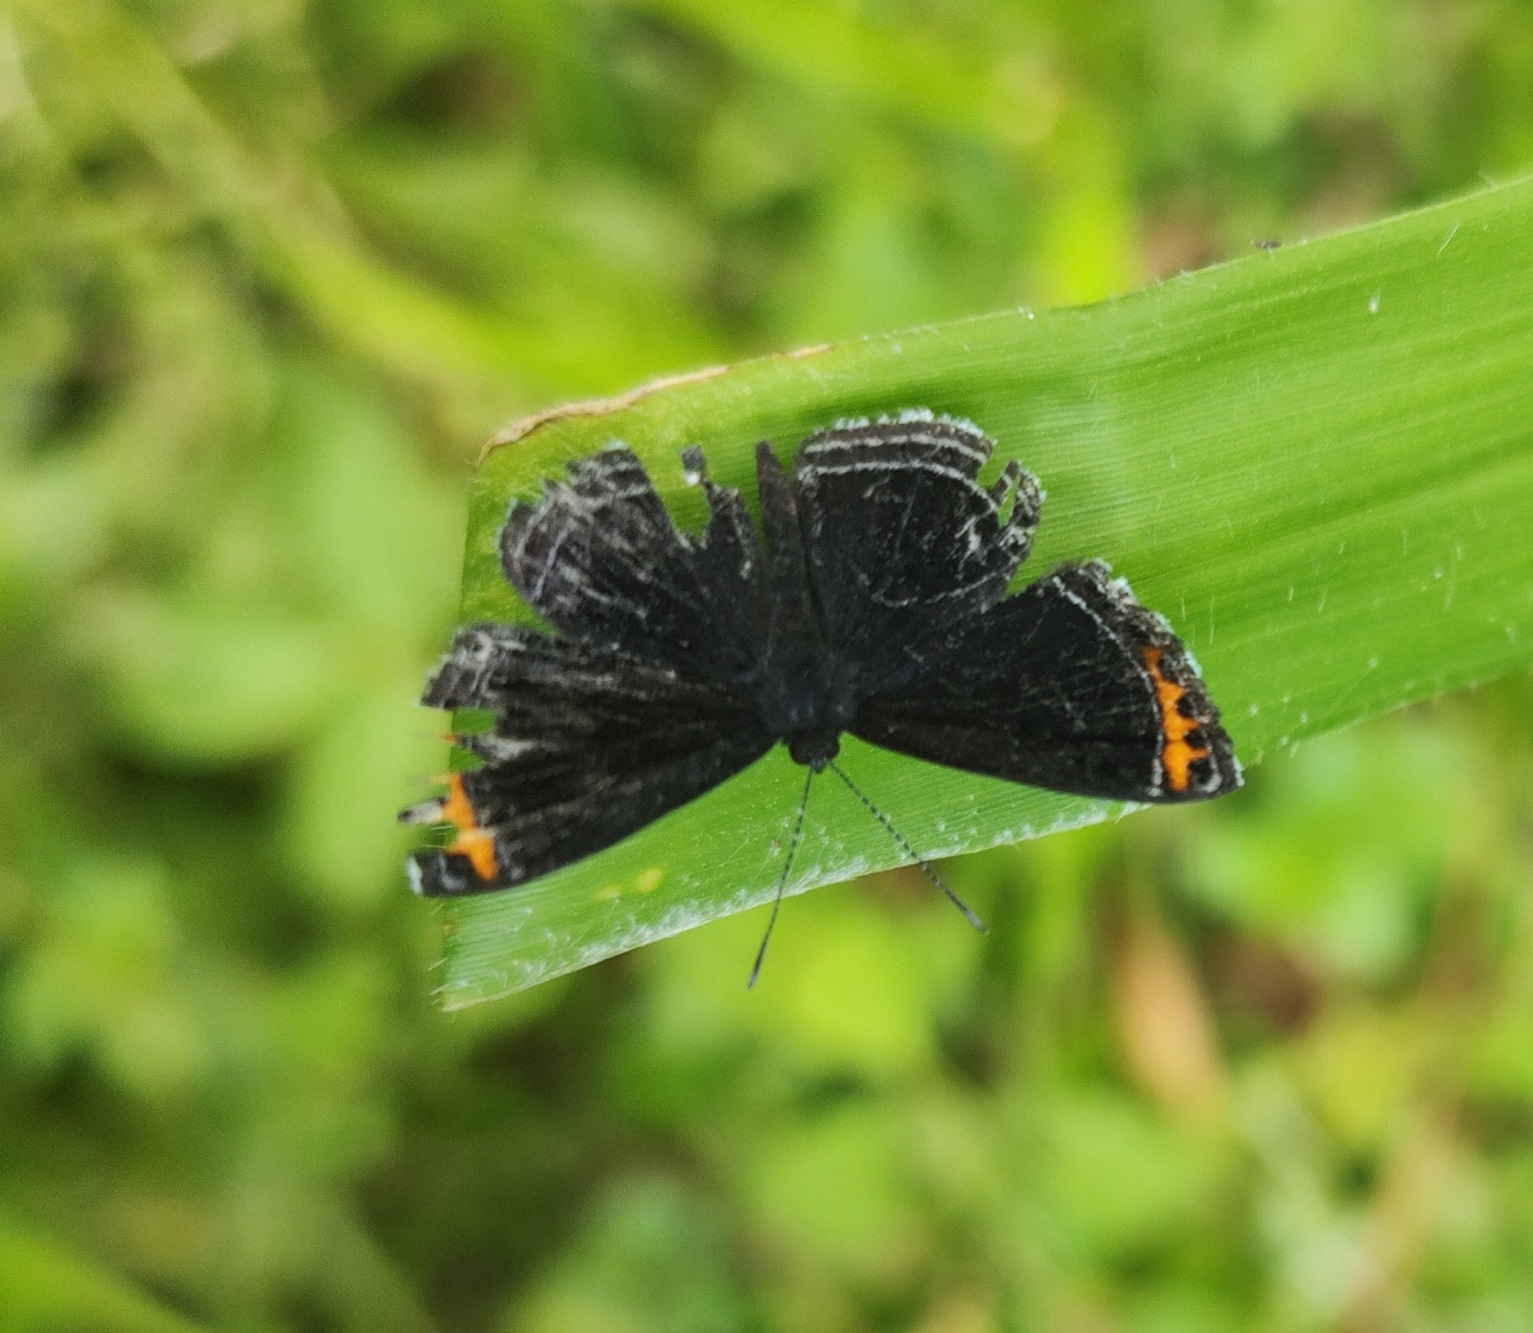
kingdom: Animalia
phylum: Arthropoda
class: Insecta
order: Lepidoptera
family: Riodinidae
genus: Nelone
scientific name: Nelone cadmeis
